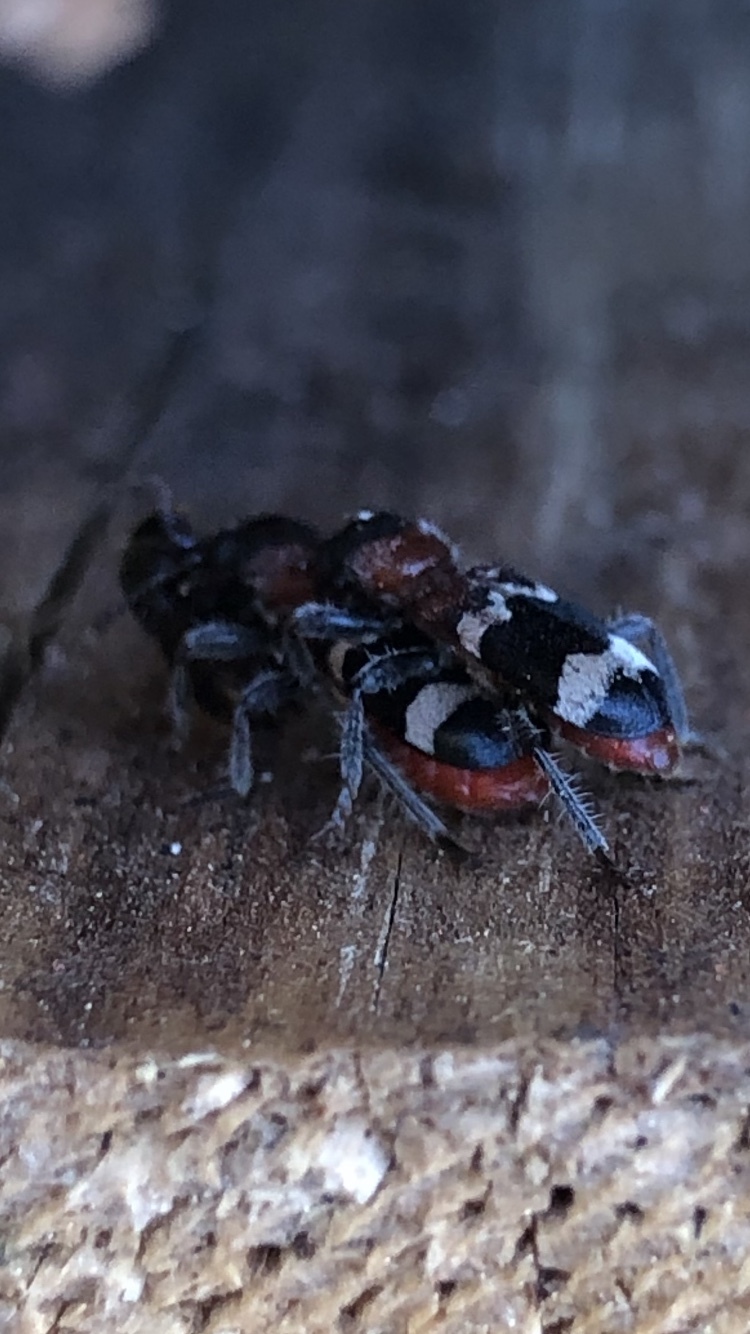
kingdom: Animalia
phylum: Arthropoda
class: Insecta
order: Coleoptera
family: Cleridae
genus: Thanasimus
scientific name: Thanasimus formicarius
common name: Ant beetle
